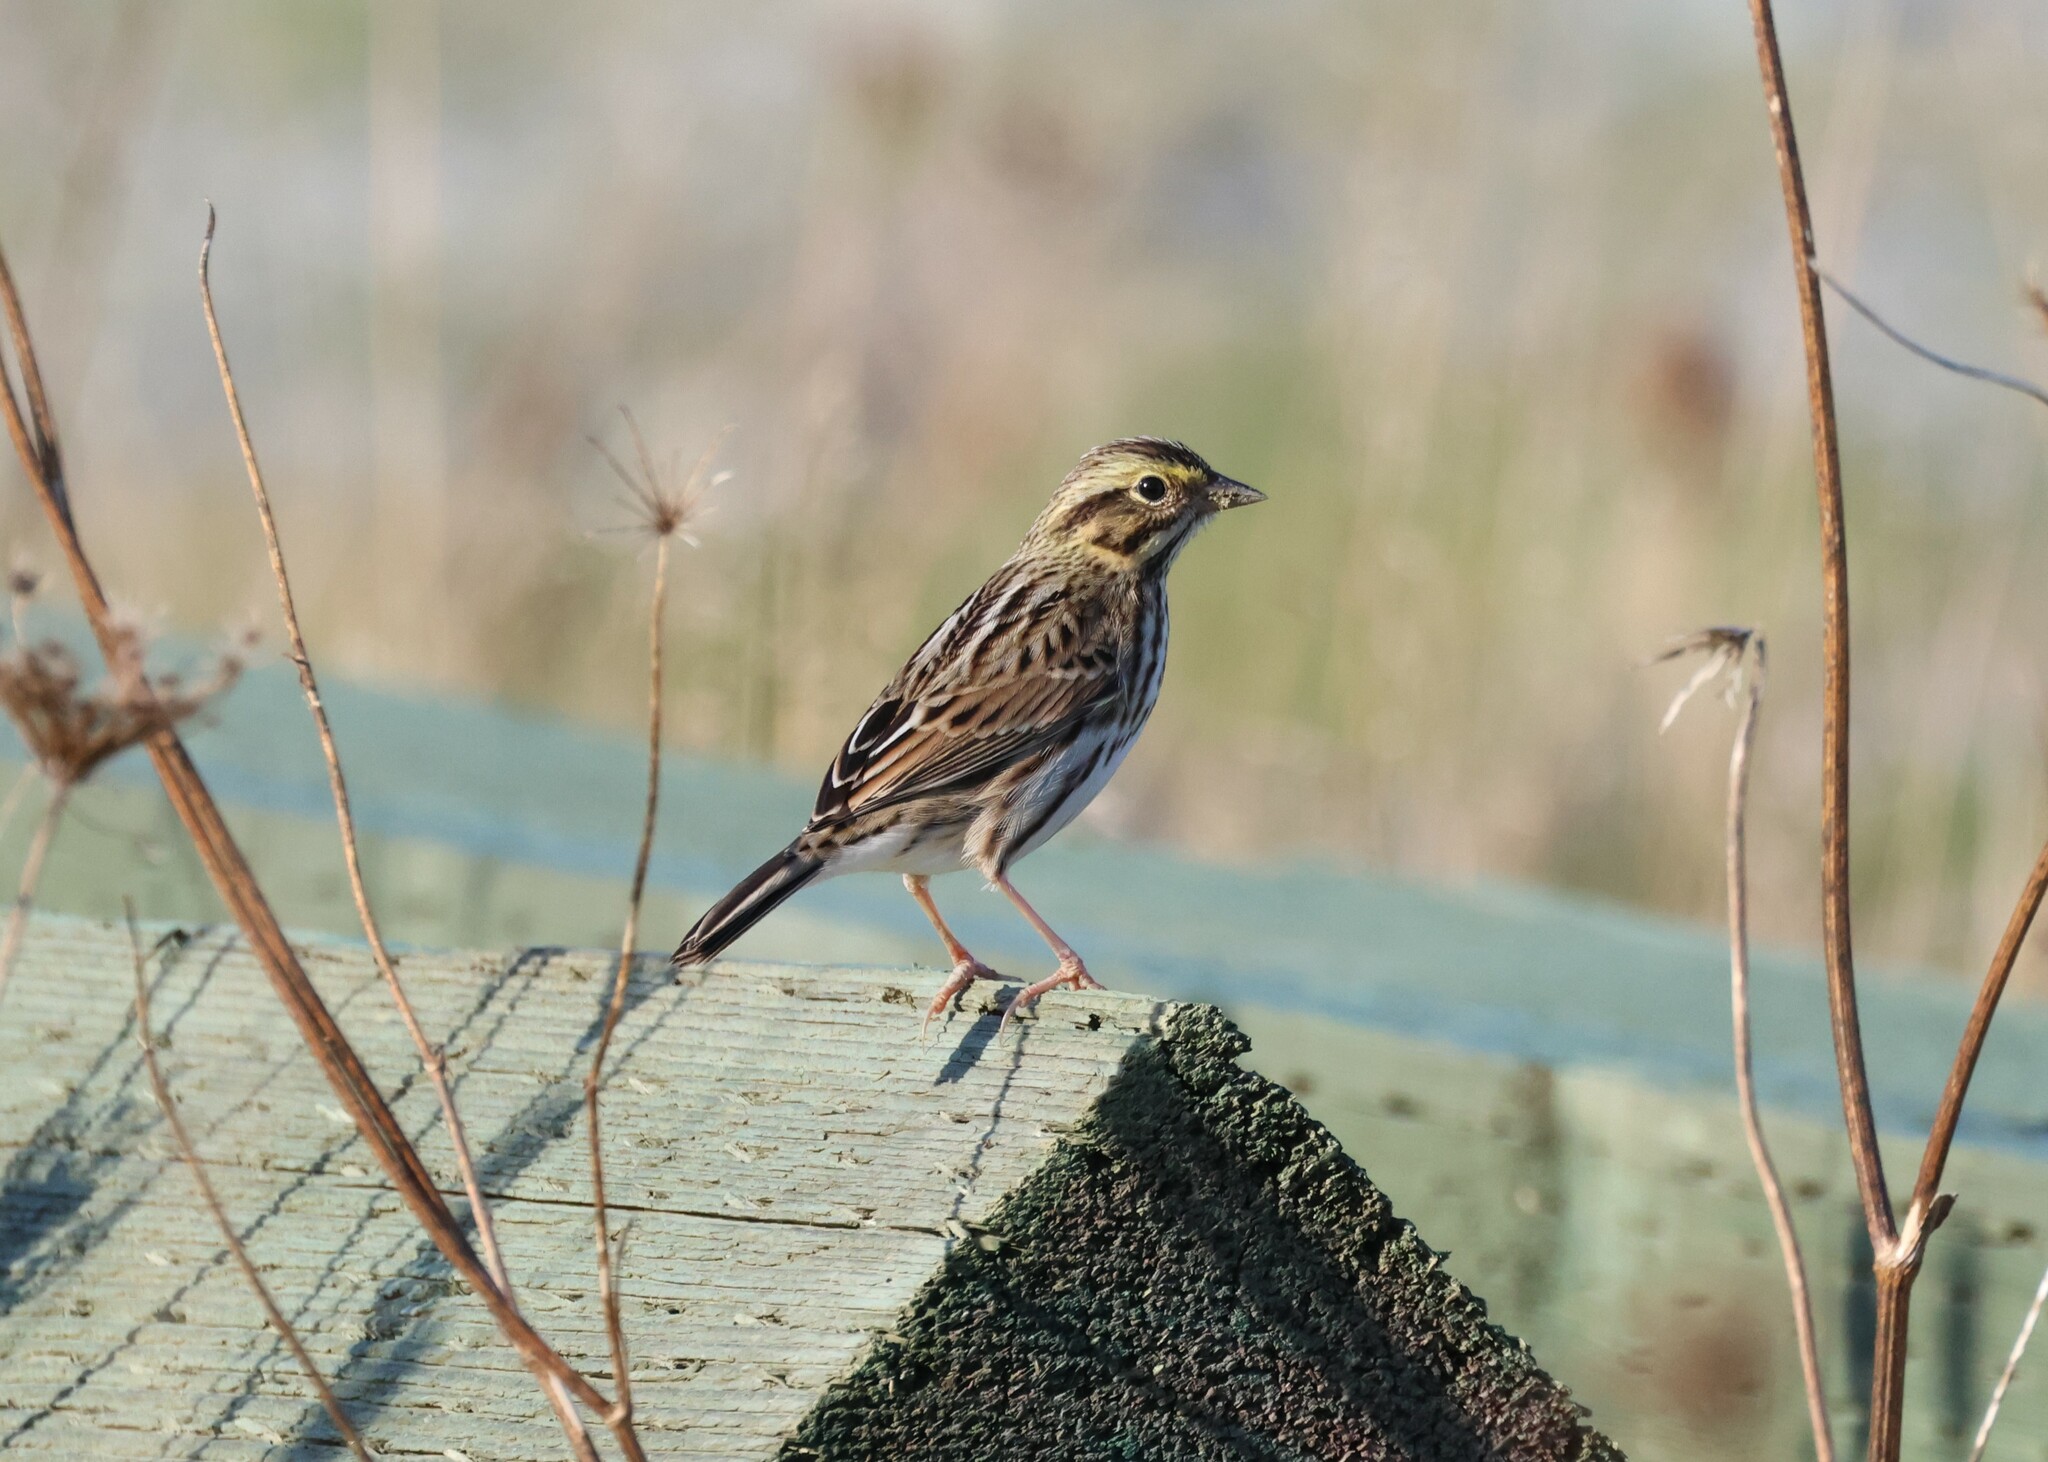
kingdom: Animalia
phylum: Chordata
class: Aves
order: Passeriformes
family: Passerellidae
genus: Passerculus
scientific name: Passerculus sandwichensis
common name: Savannah sparrow
